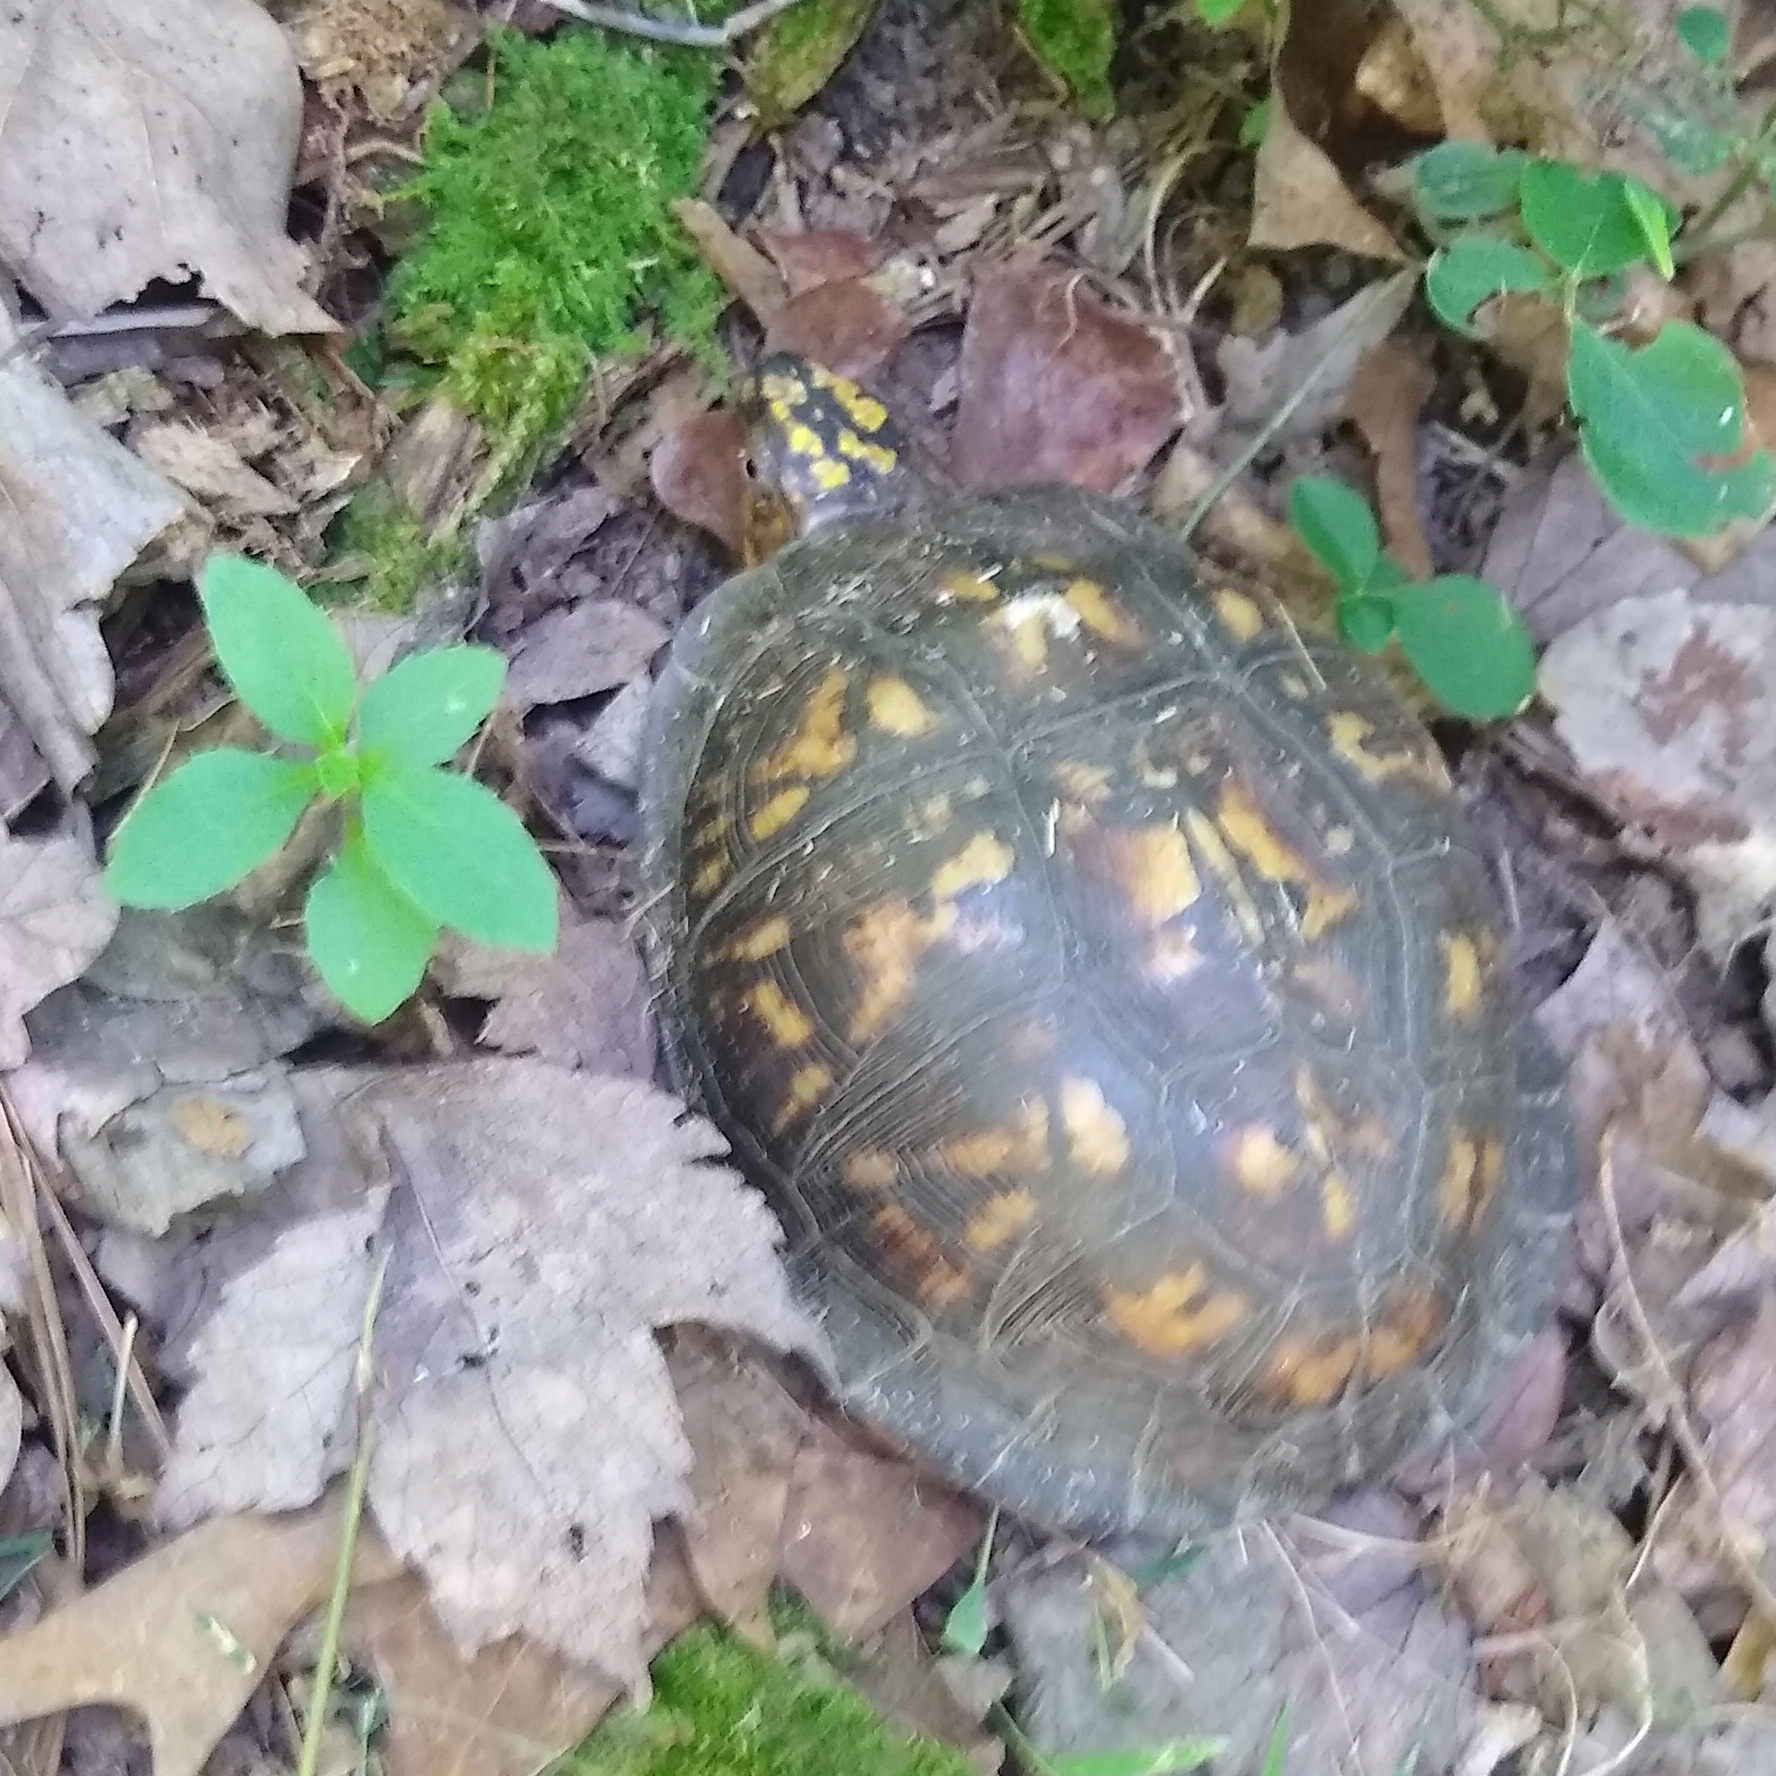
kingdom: Animalia
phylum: Chordata
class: Testudines
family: Emydidae
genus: Terrapene
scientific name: Terrapene carolina
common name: Common box turtle
